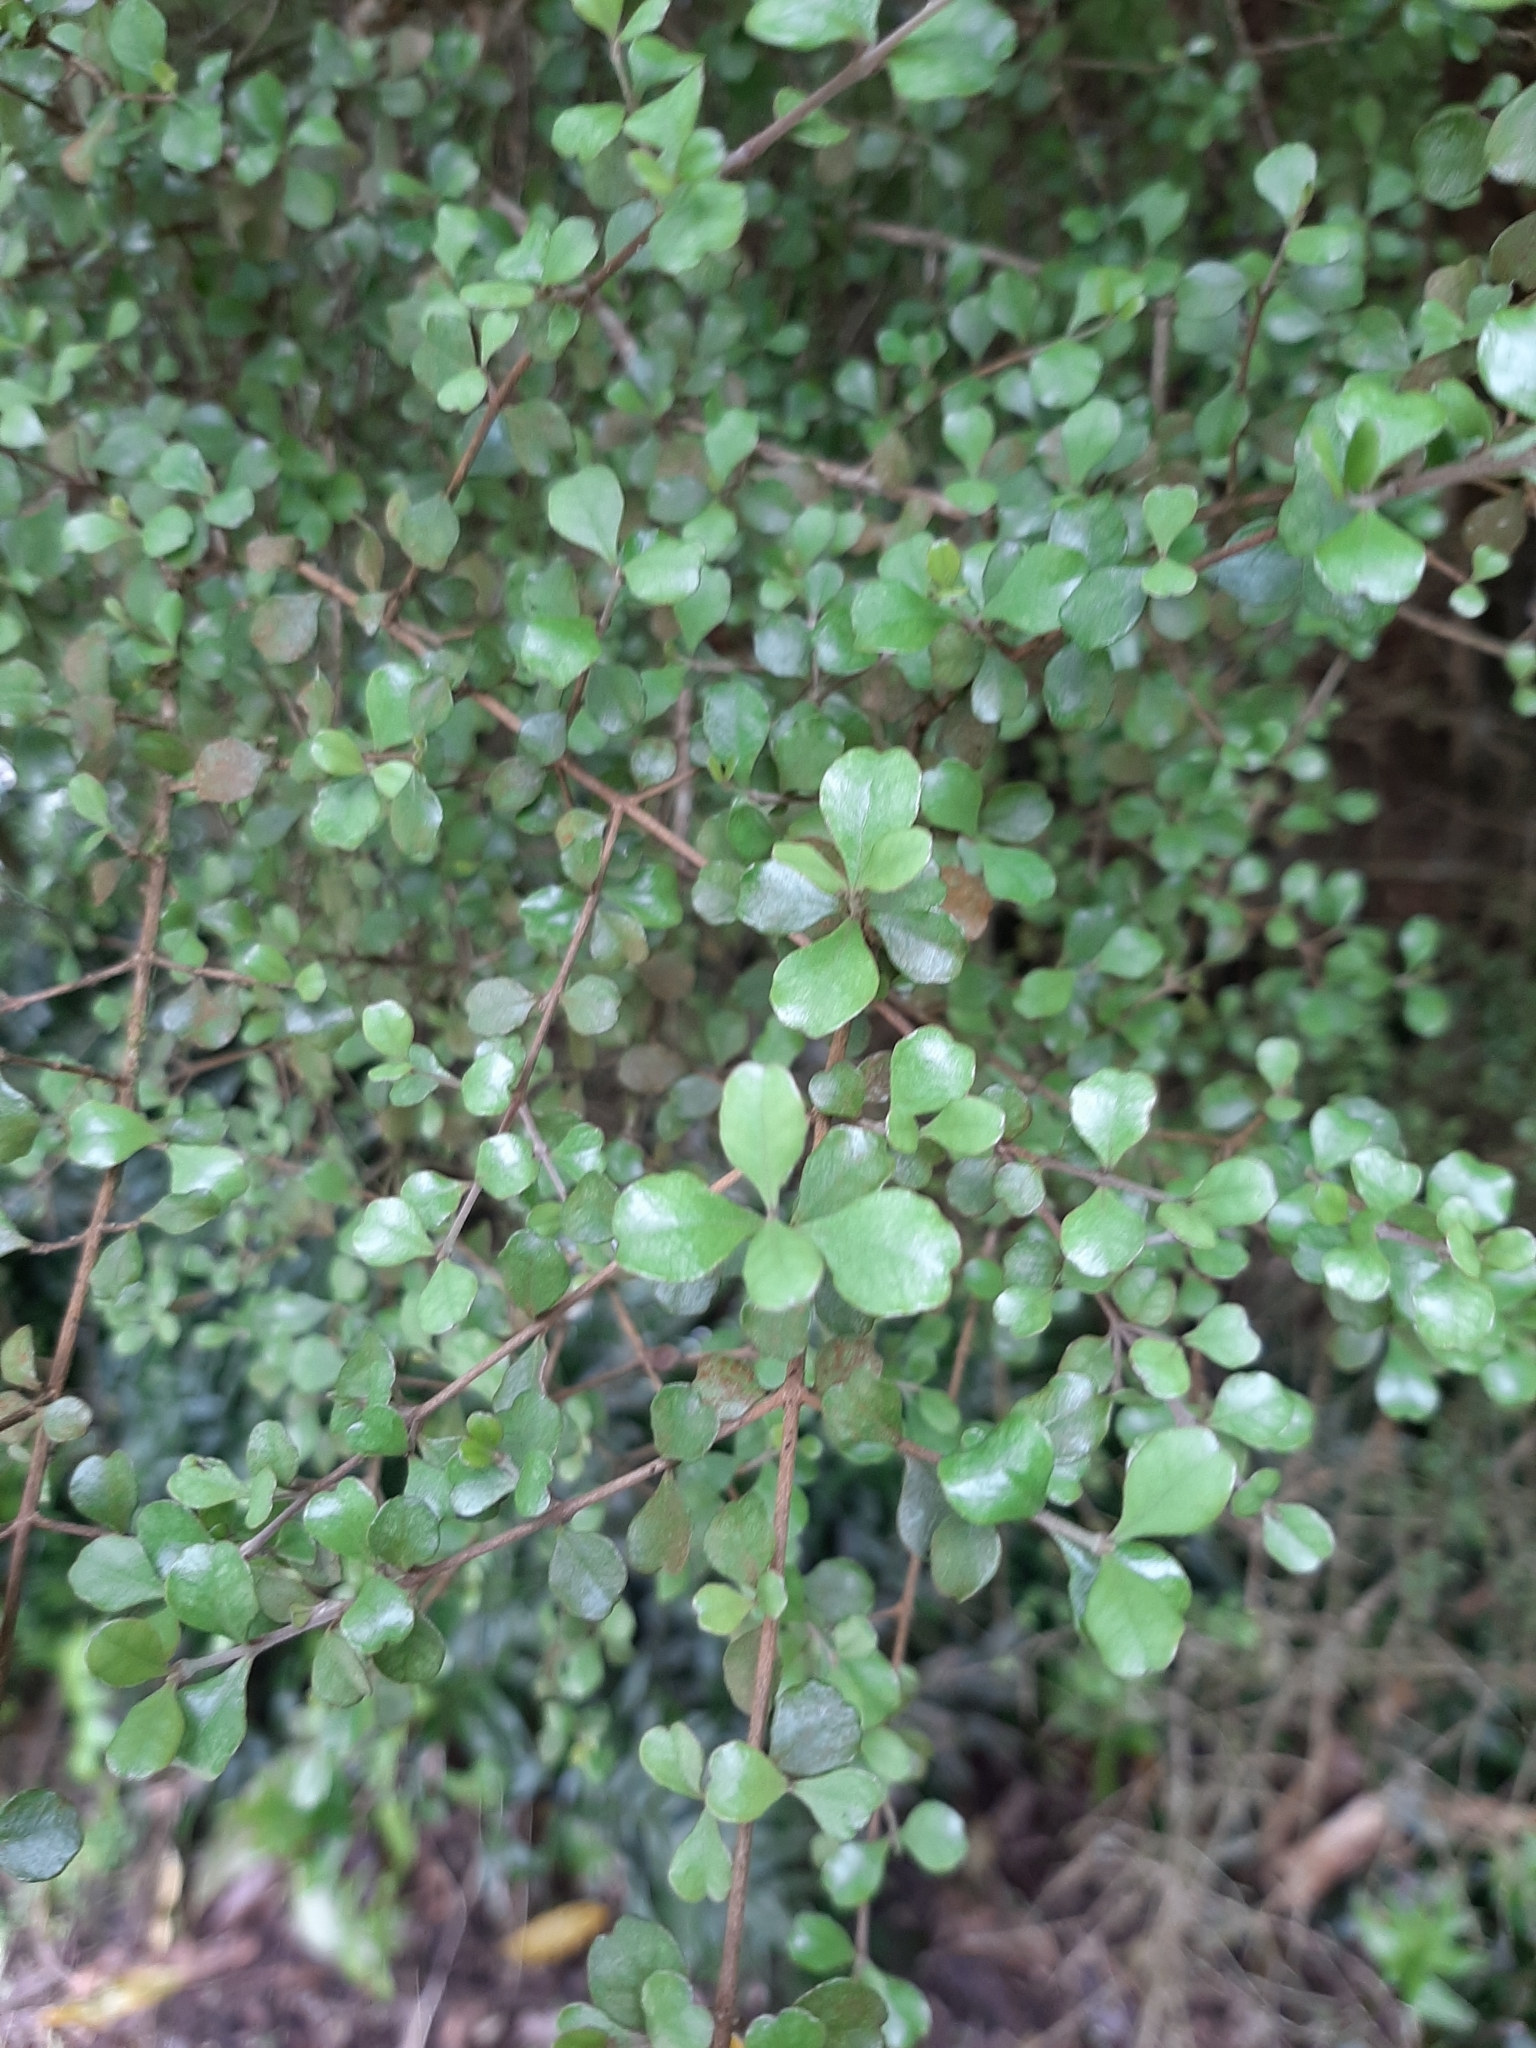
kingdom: Plantae
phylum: Tracheophyta
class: Magnoliopsida
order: Myrtales
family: Myrtaceae
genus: Lophomyrtus
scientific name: Lophomyrtus obcordata
